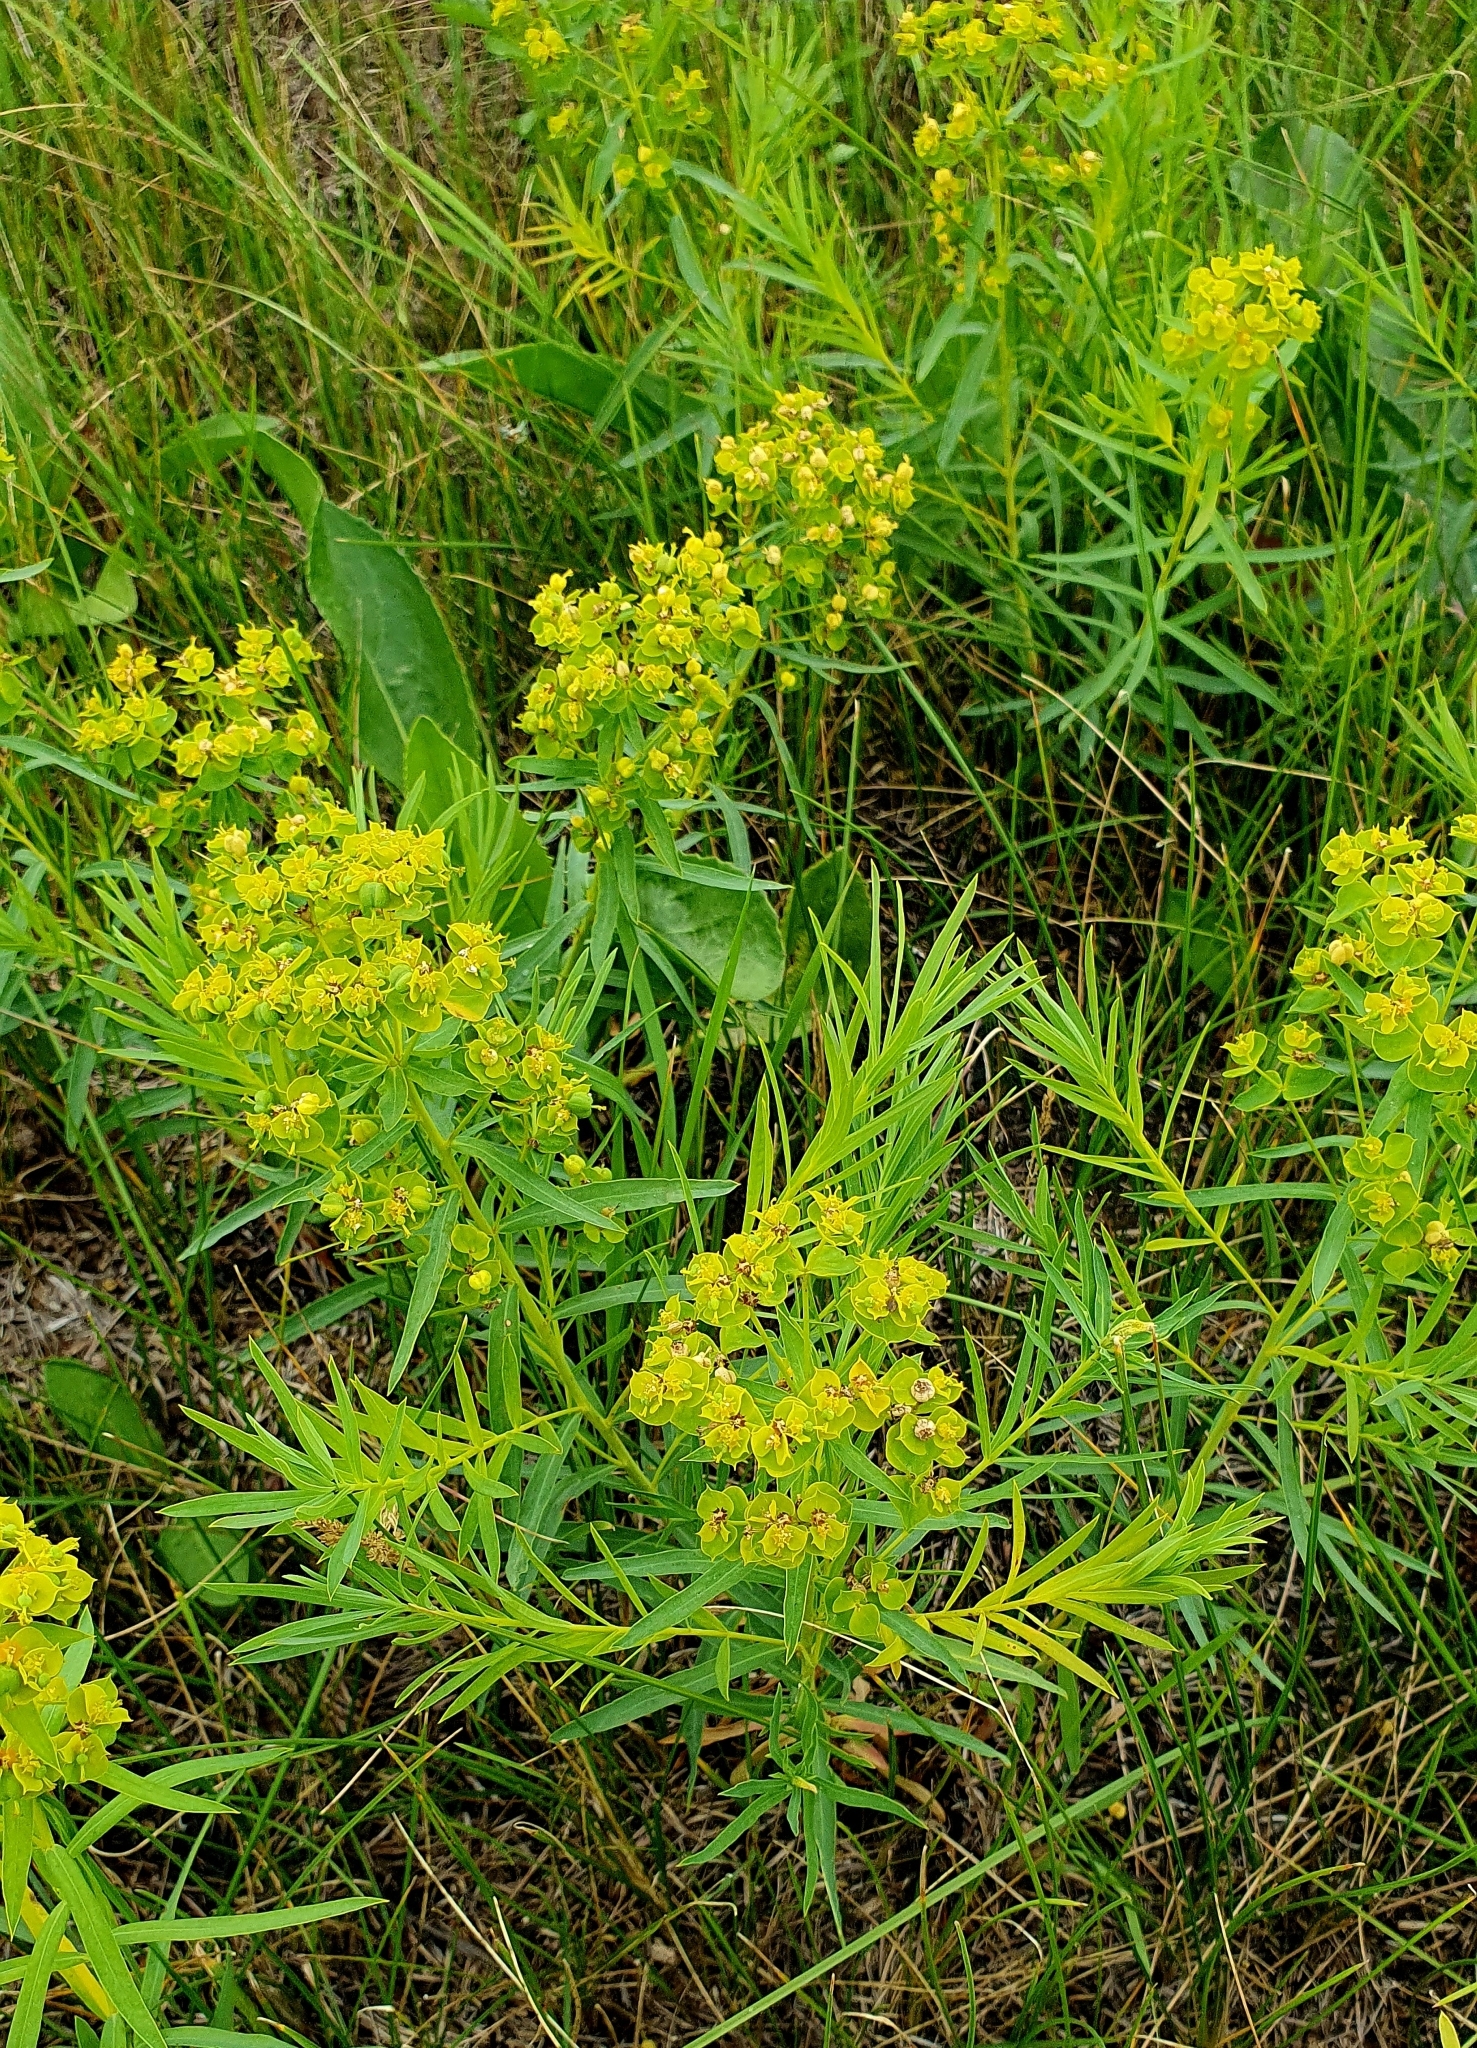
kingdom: Plantae
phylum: Tracheophyta
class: Magnoliopsida
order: Malpighiales
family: Euphorbiaceae
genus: Euphorbia
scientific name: Euphorbia virgata
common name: Leafy spurge
